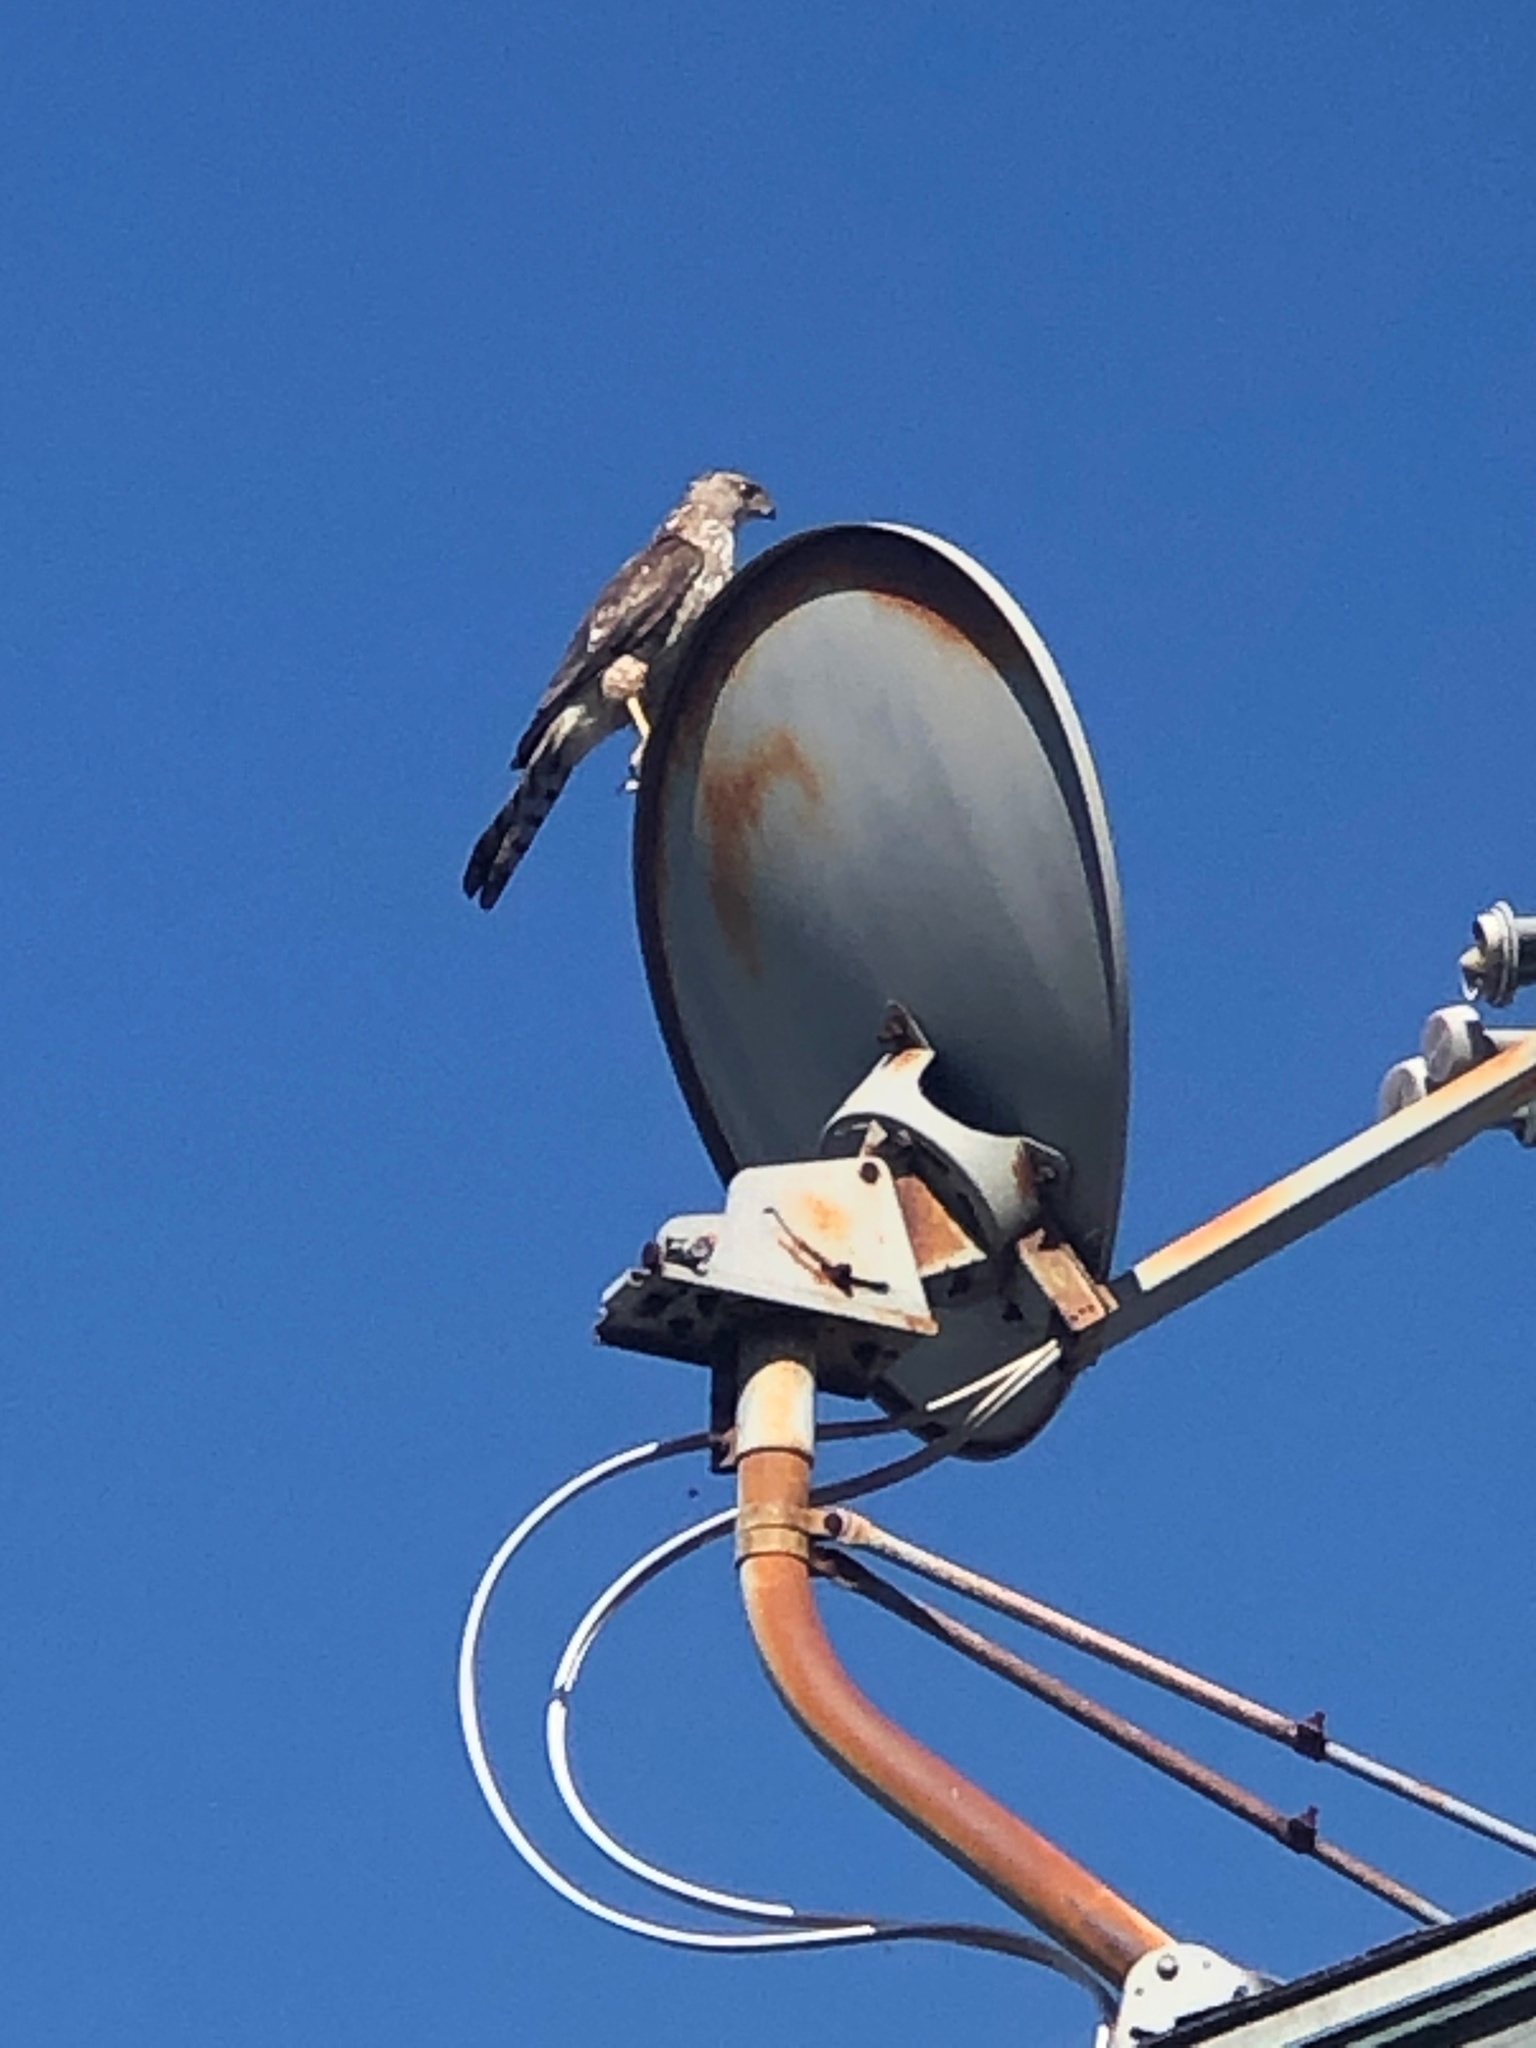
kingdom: Animalia
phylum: Chordata
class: Aves
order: Accipitriformes
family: Accipitridae
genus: Accipiter
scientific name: Accipiter cooperii
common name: Cooper's hawk
